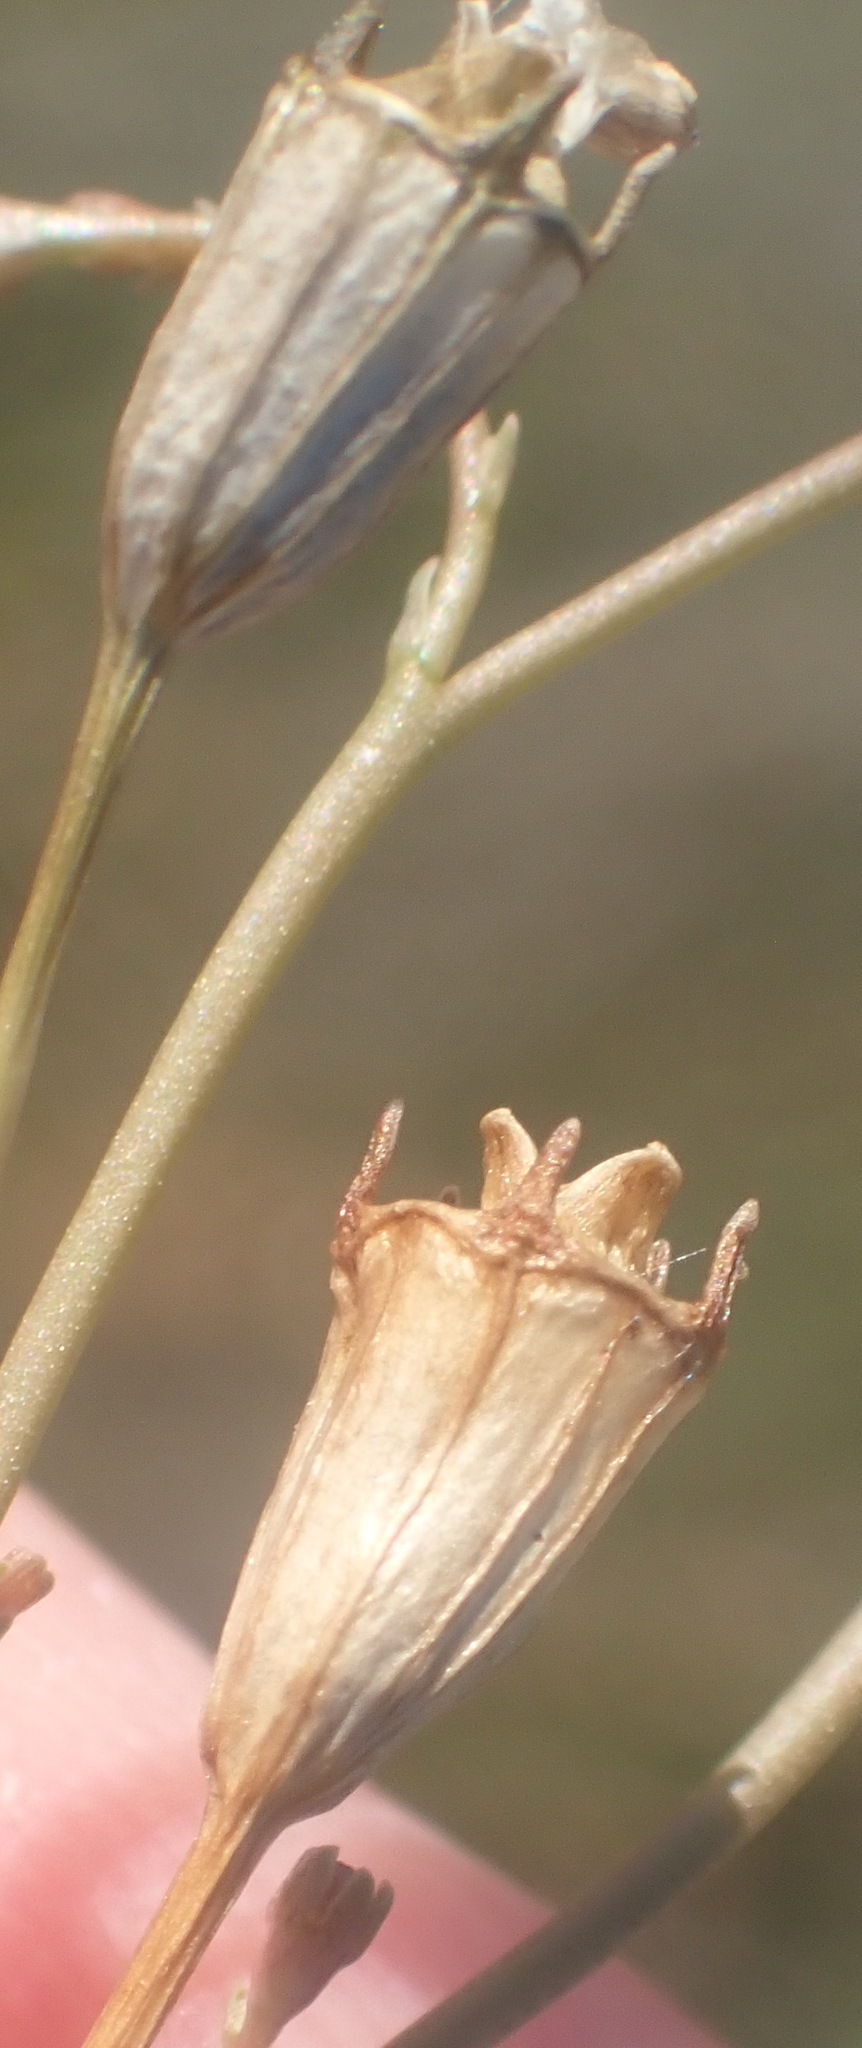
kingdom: Plantae
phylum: Tracheophyta
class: Magnoliopsida
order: Asterales
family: Campanulaceae
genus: Wahlenbergia
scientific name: Wahlenbergia androsacea
